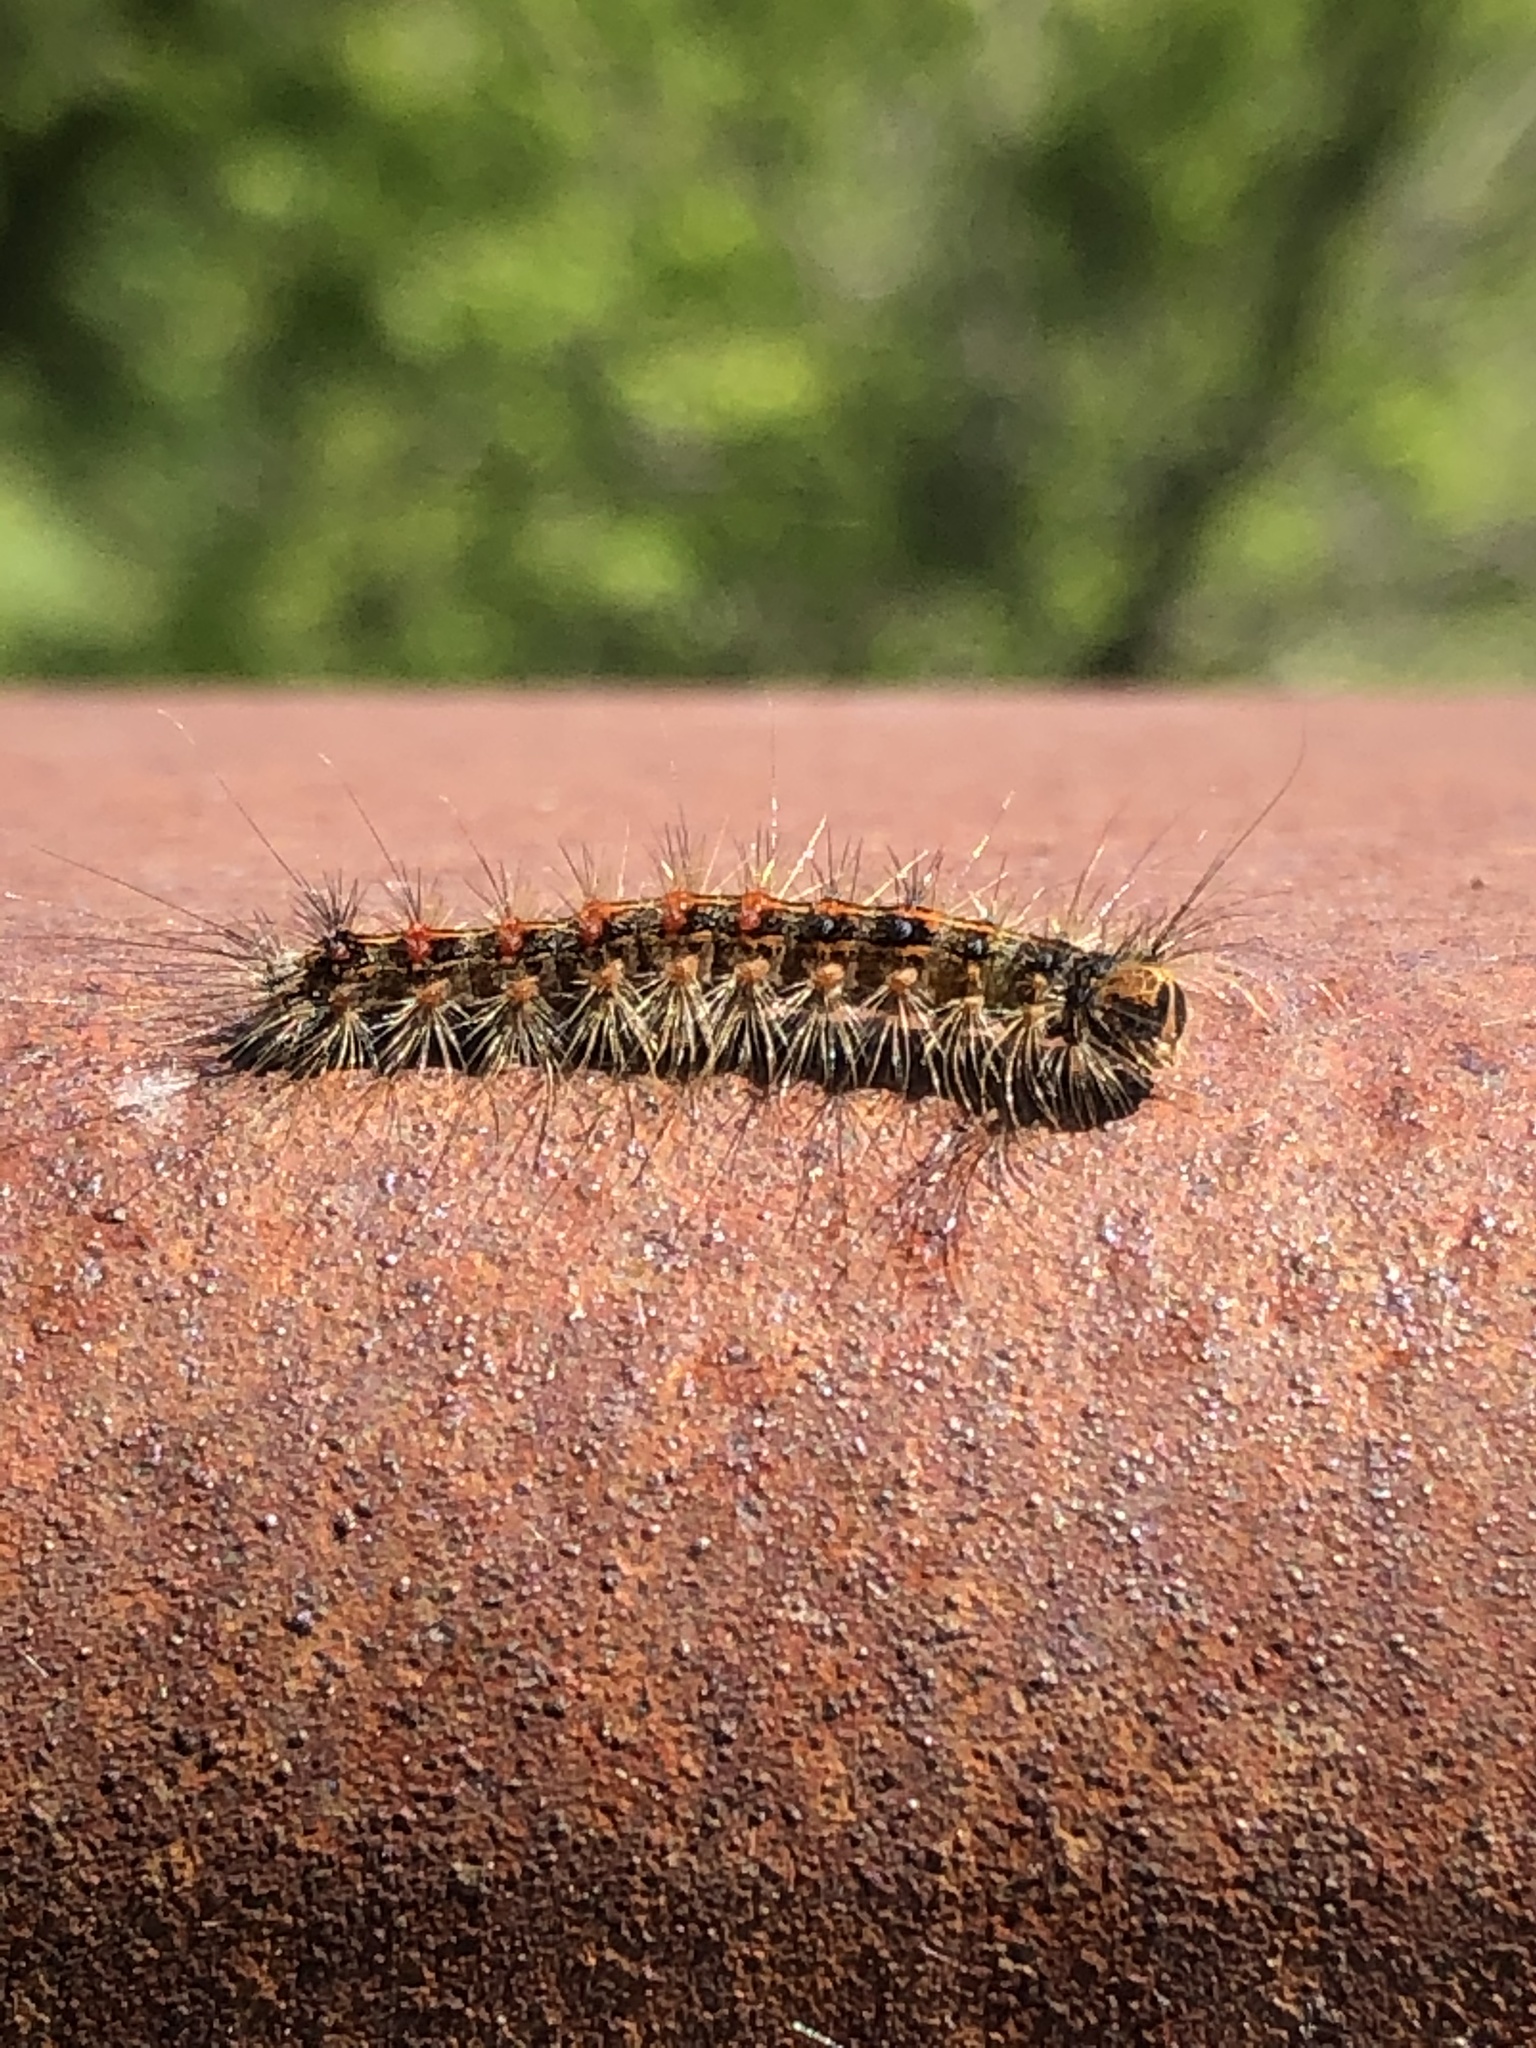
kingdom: Animalia
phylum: Arthropoda
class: Insecta
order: Lepidoptera
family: Erebidae
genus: Lymantria
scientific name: Lymantria dispar
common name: Gypsy moth
